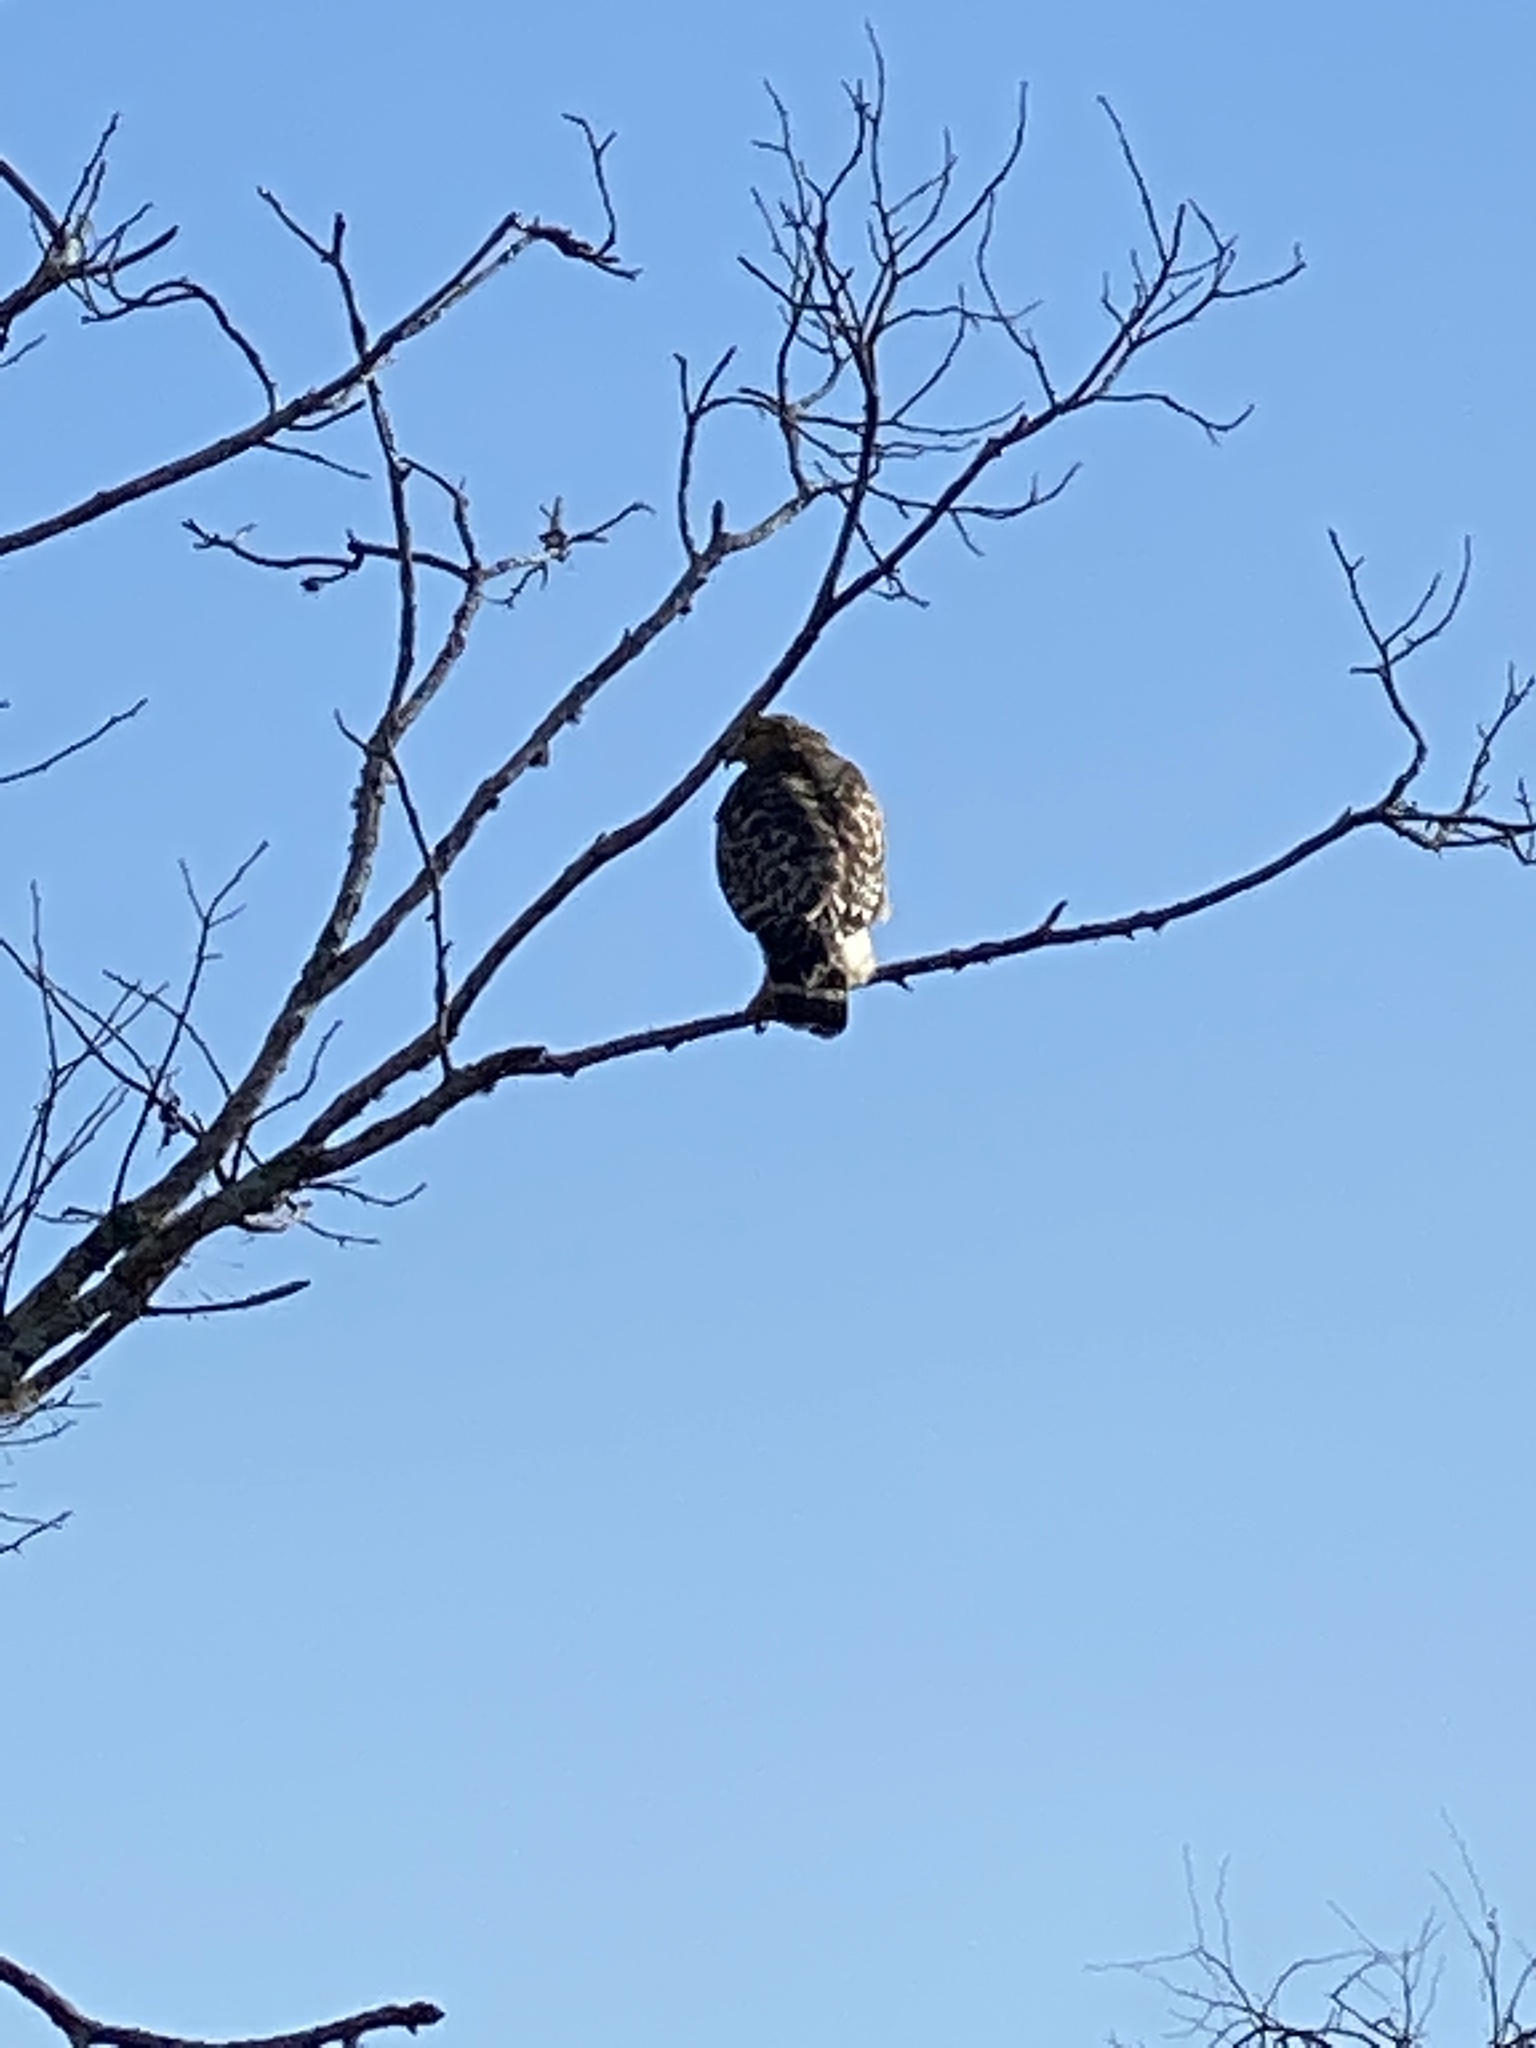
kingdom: Animalia
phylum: Chordata
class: Aves
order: Accipitriformes
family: Accipitridae
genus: Buteo
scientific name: Buteo lineatus
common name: Red-shouldered hawk
